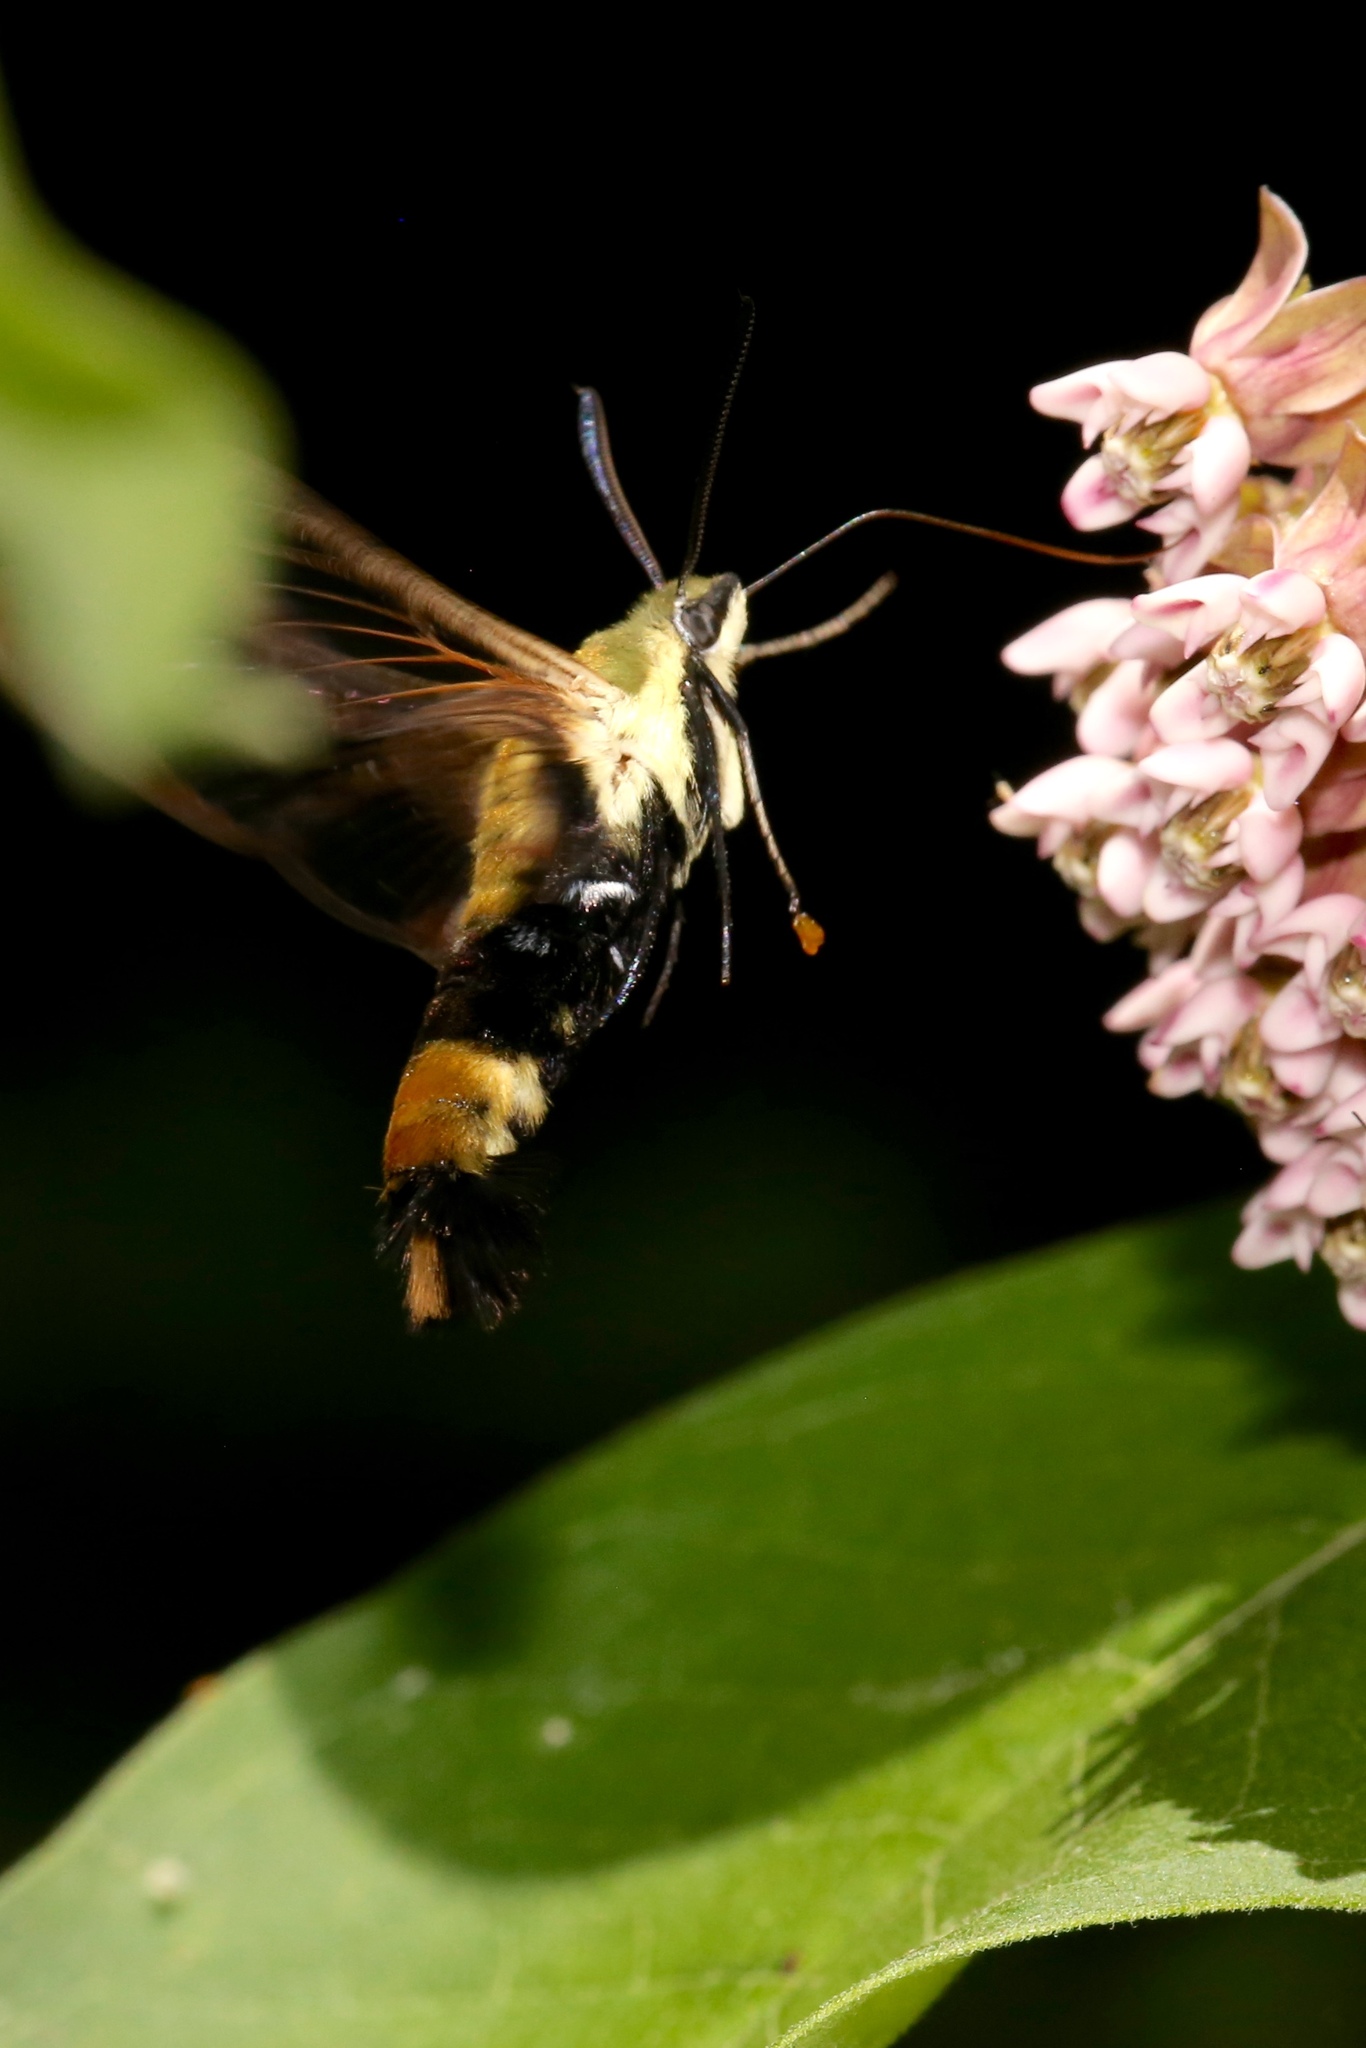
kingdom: Animalia
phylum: Arthropoda
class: Insecta
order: Lepidoptera
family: Sphingidae
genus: Hemaris
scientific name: Hemaris diffinis
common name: Bumblebee moth
